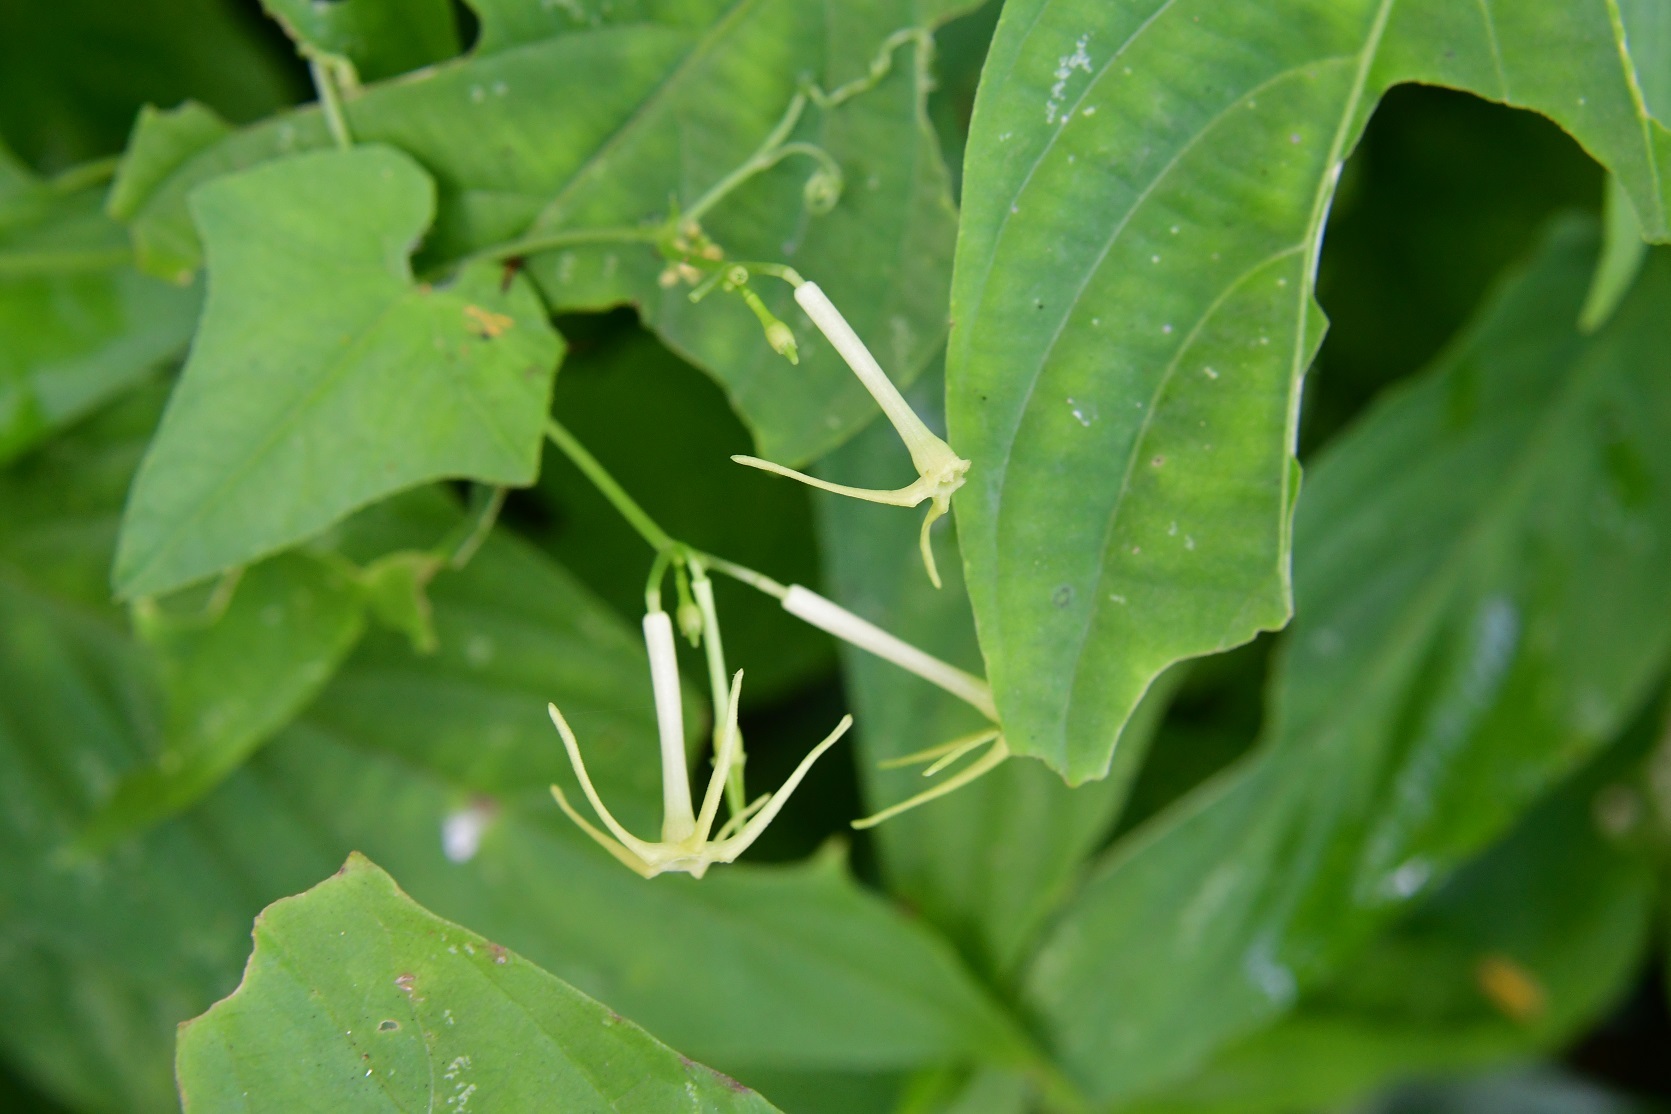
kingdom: Plantae
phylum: Tracheophyta
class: Magnoliopsida
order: Cucurbitales
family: Cucurbitaceae
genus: Cyclanthera
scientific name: Cyclanthera carthagenensis
